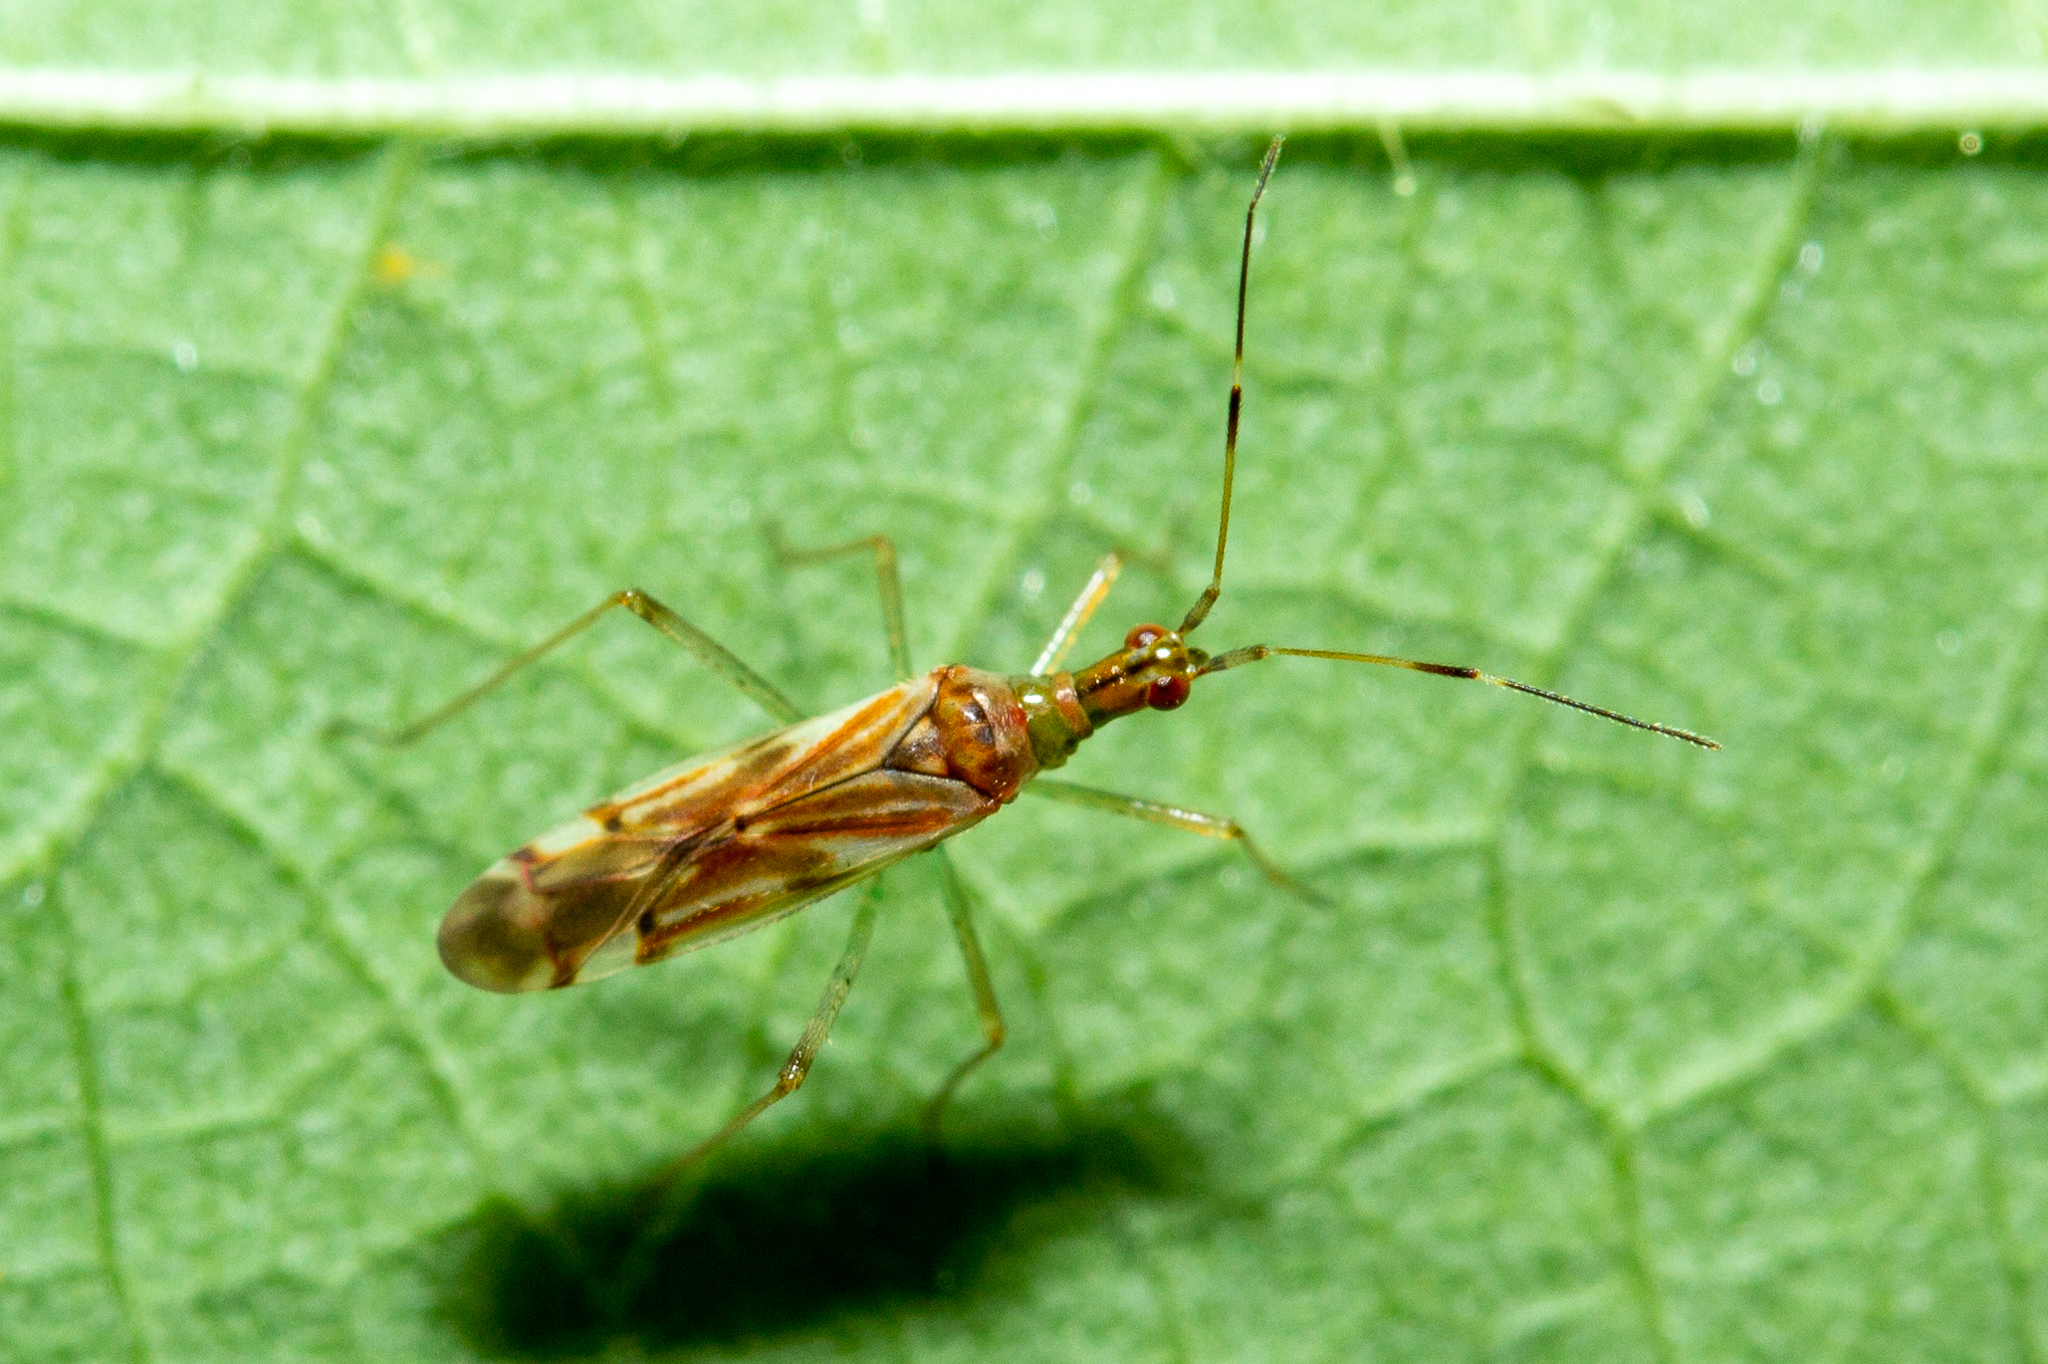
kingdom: Animalia
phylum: Arthropoda
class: Insecta
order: Hemiptera
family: Miridae
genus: Dicyphus
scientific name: Dicyphus famelicus
